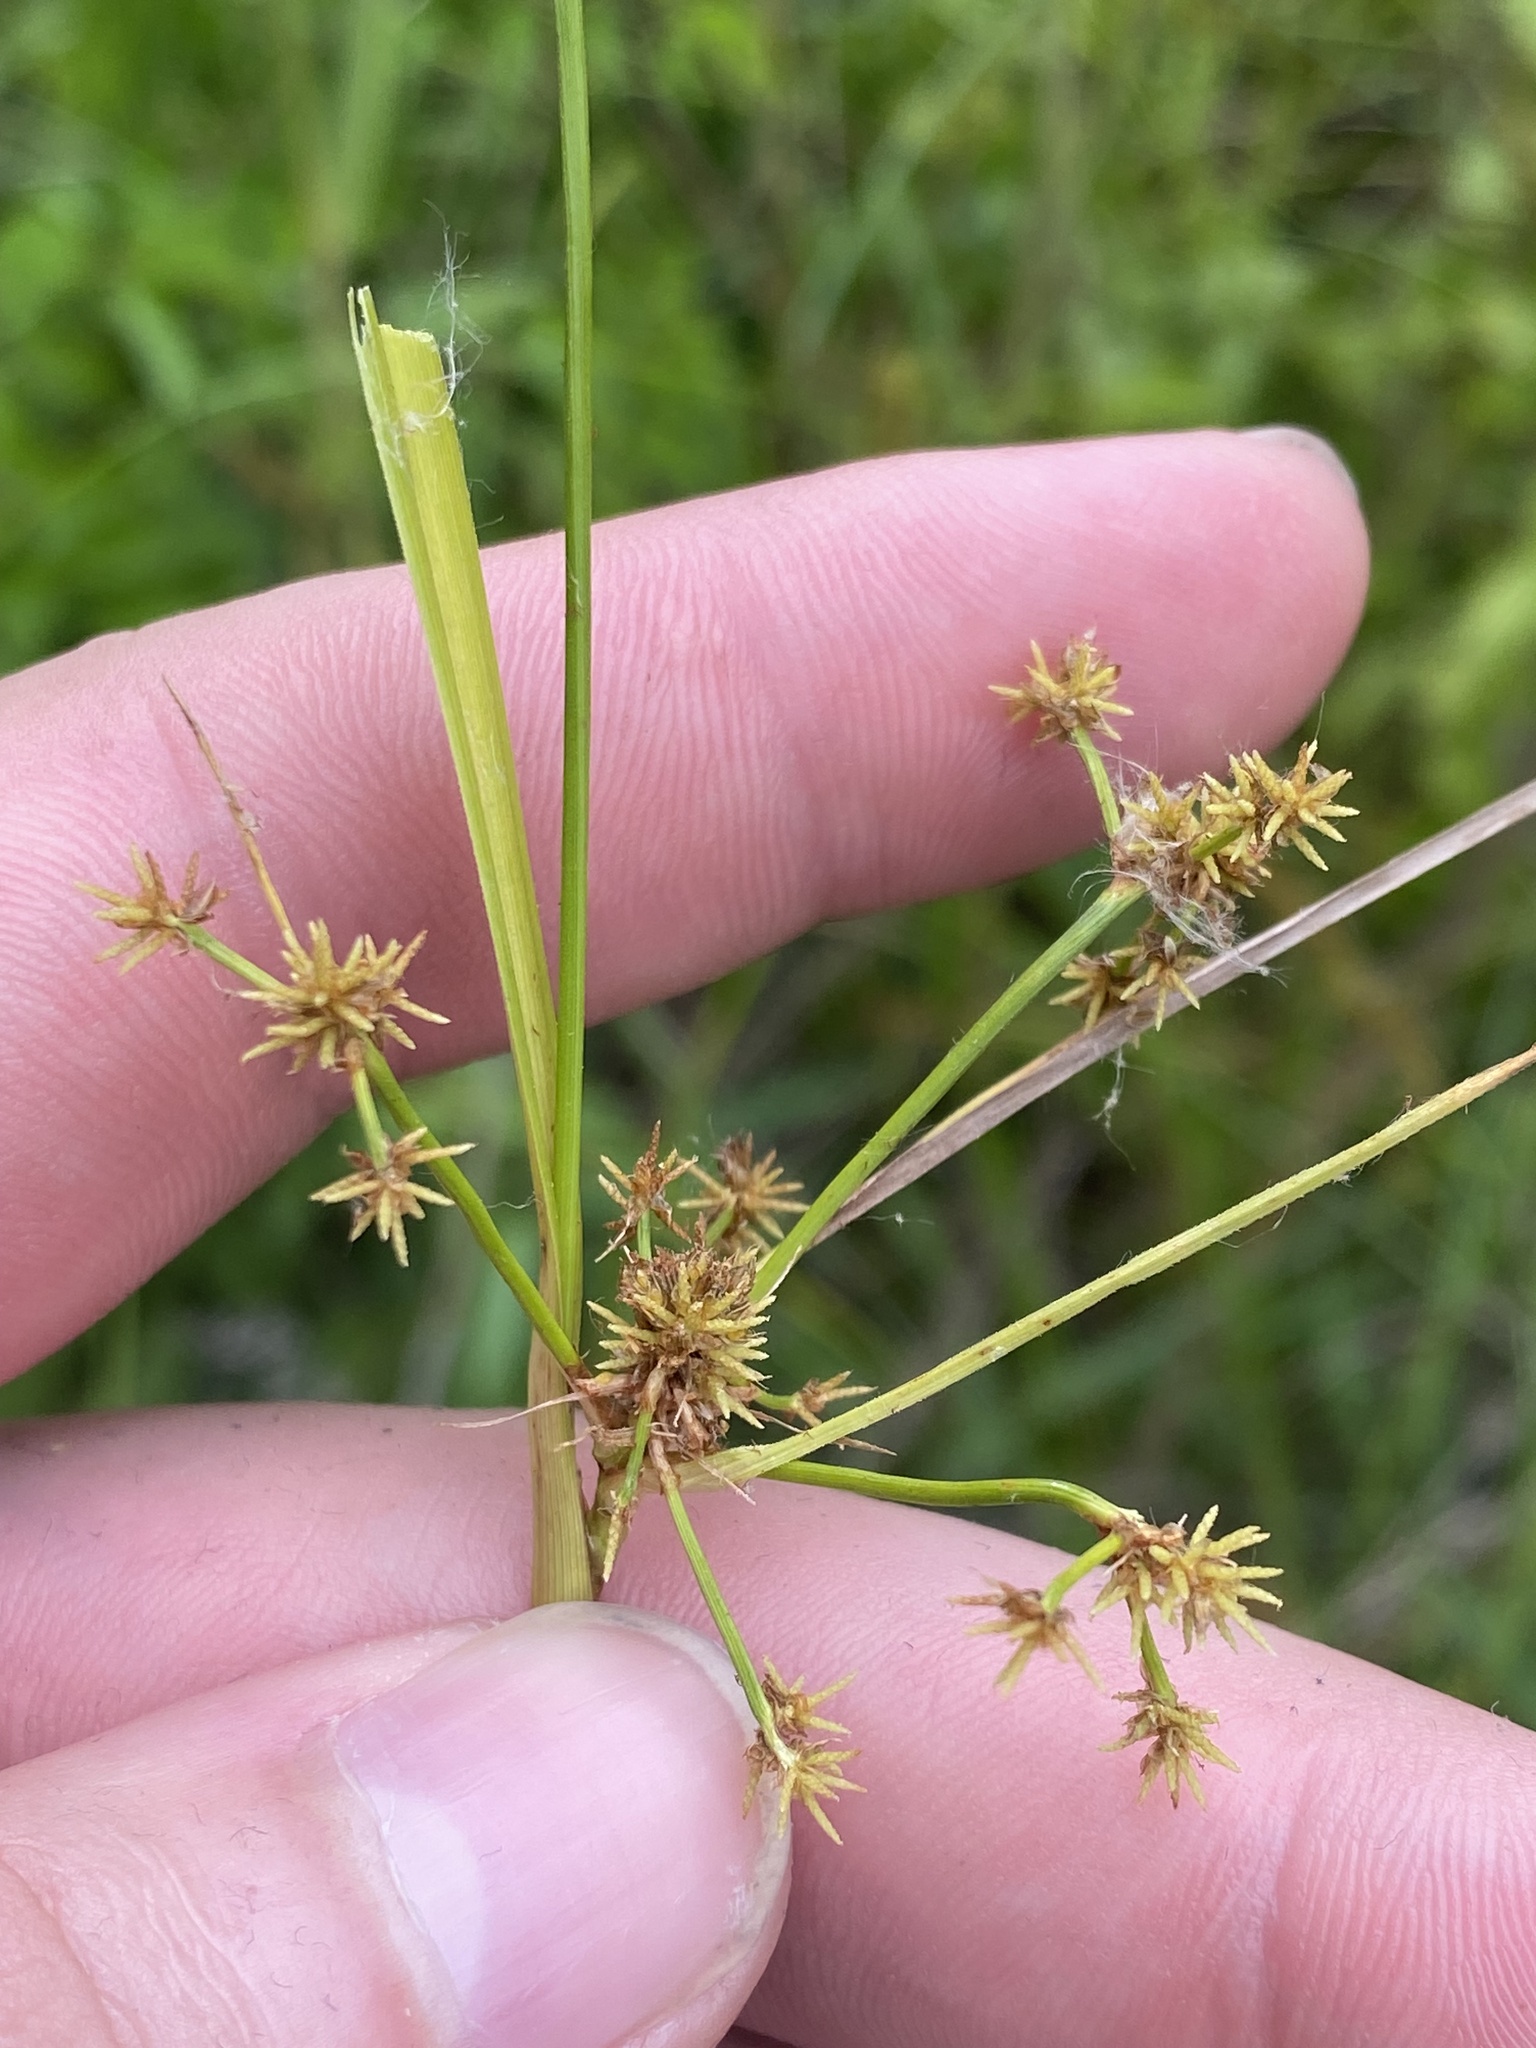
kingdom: Plantae
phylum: Tracheophyta
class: Liliopsida
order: Poales
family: Cyperaceae
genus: Scirpus
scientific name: Scirpus georgianus
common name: Bristleless dark-green bulrush
